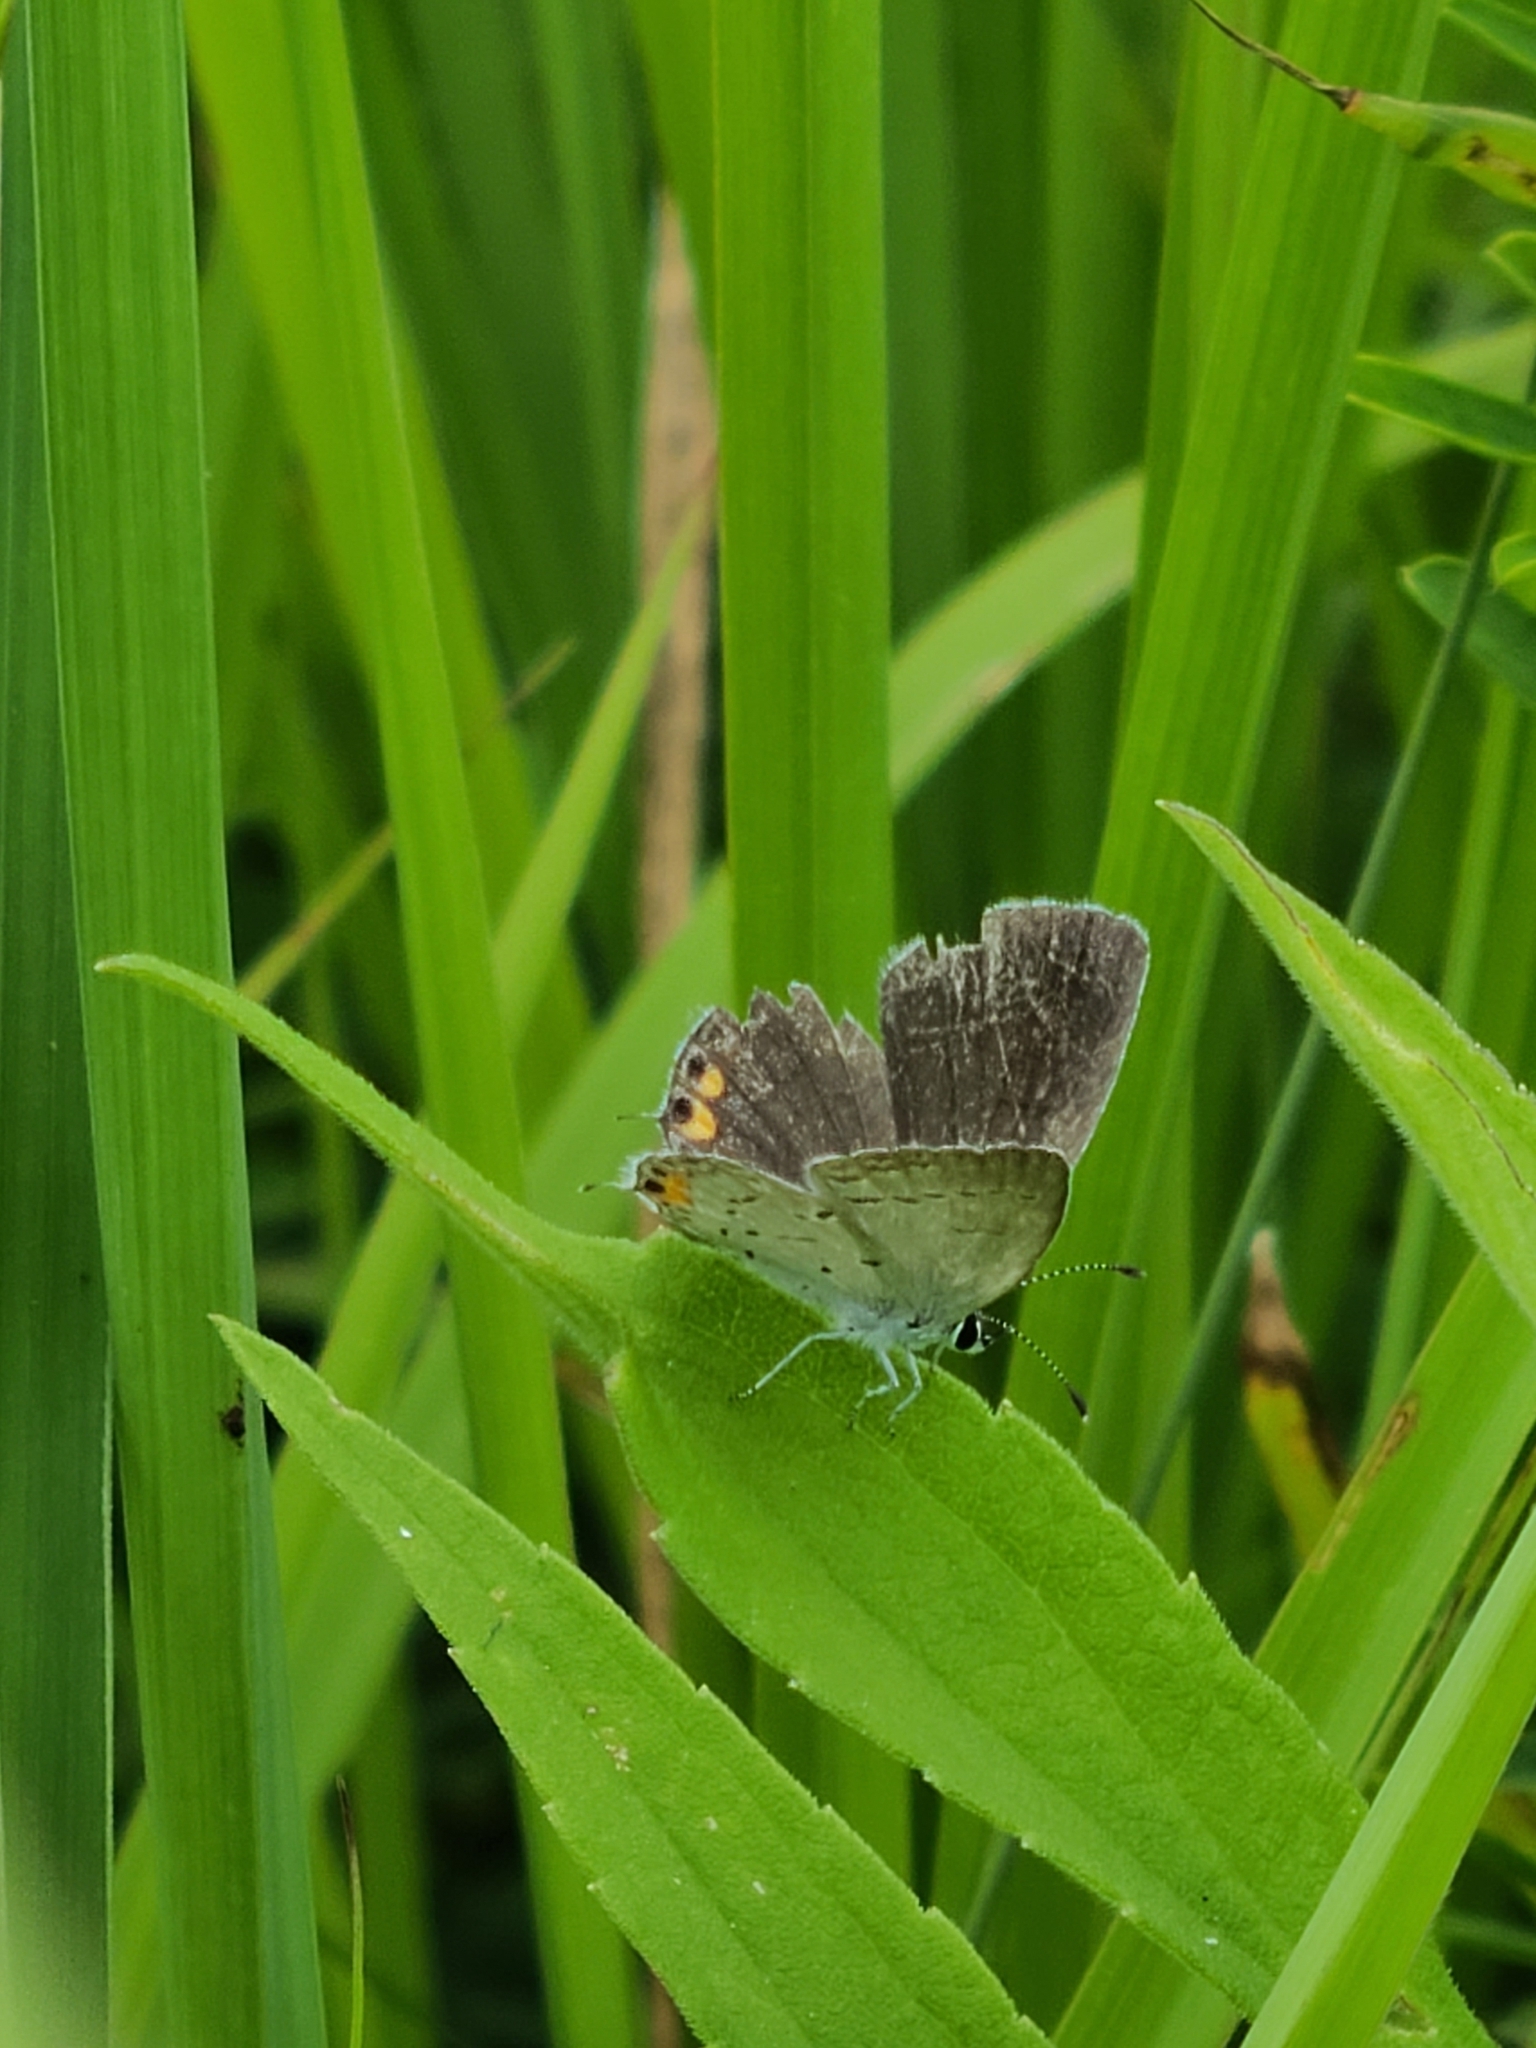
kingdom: Animalia
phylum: Arthropoda
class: Insecta
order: Lepidoptera
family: Lycaenidae
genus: Elkalyce
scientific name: Elkalyce comyntas
